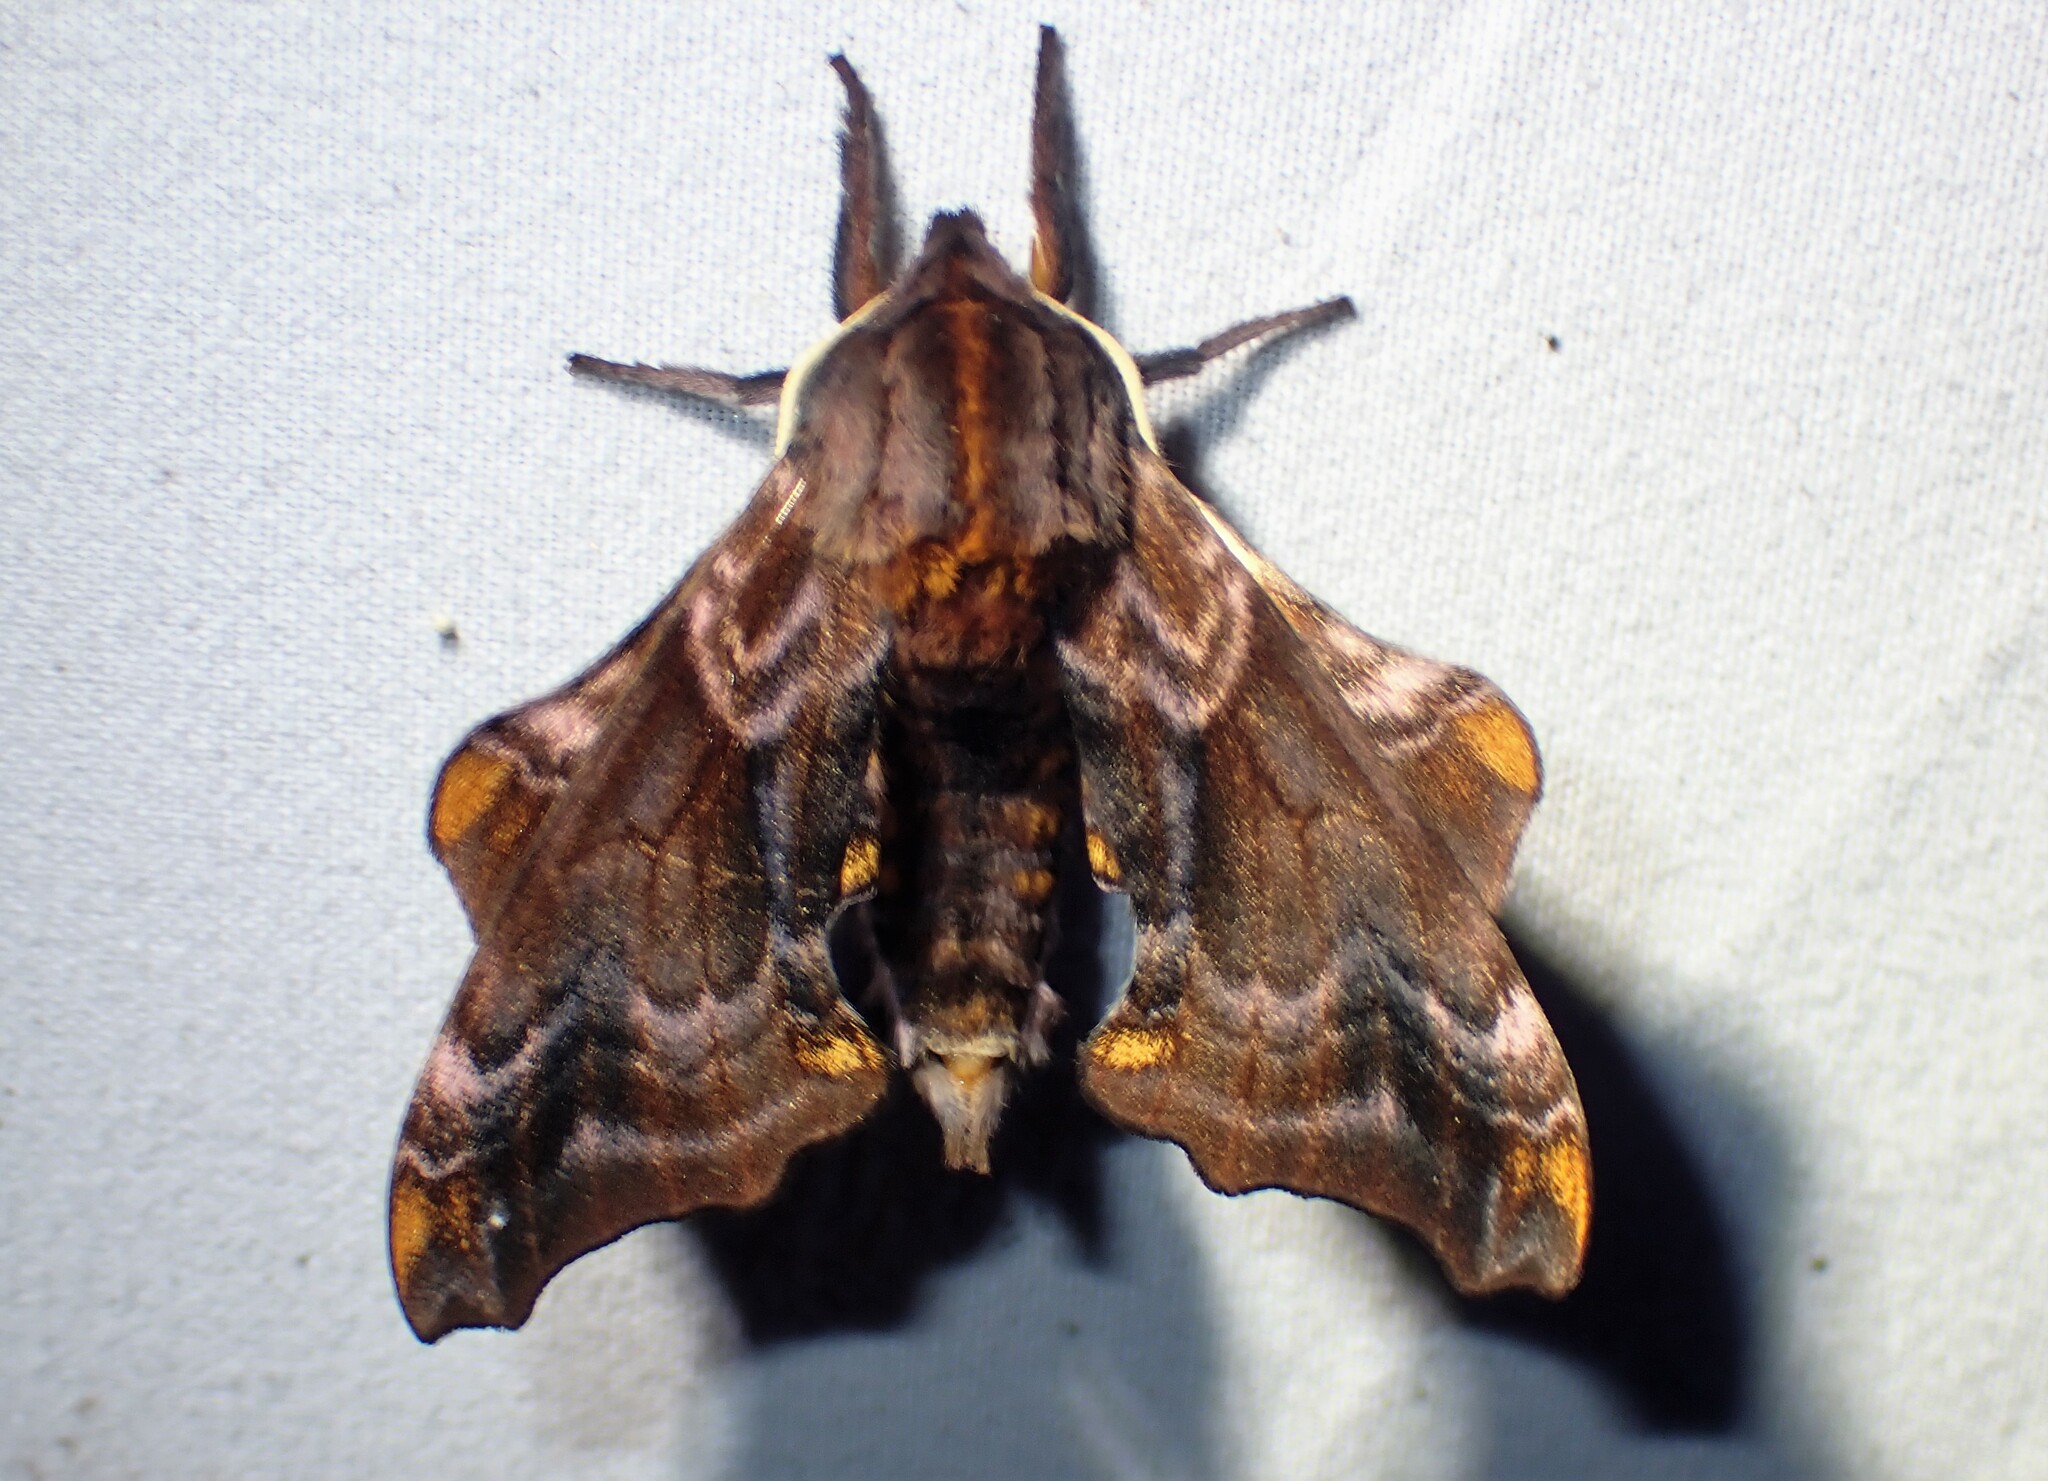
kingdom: Animalia
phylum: Arthropoda
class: Insecta
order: Lepidoptera
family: Sphingidae
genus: Paonias
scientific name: Paonias myops
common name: Small-eyed sphinx
